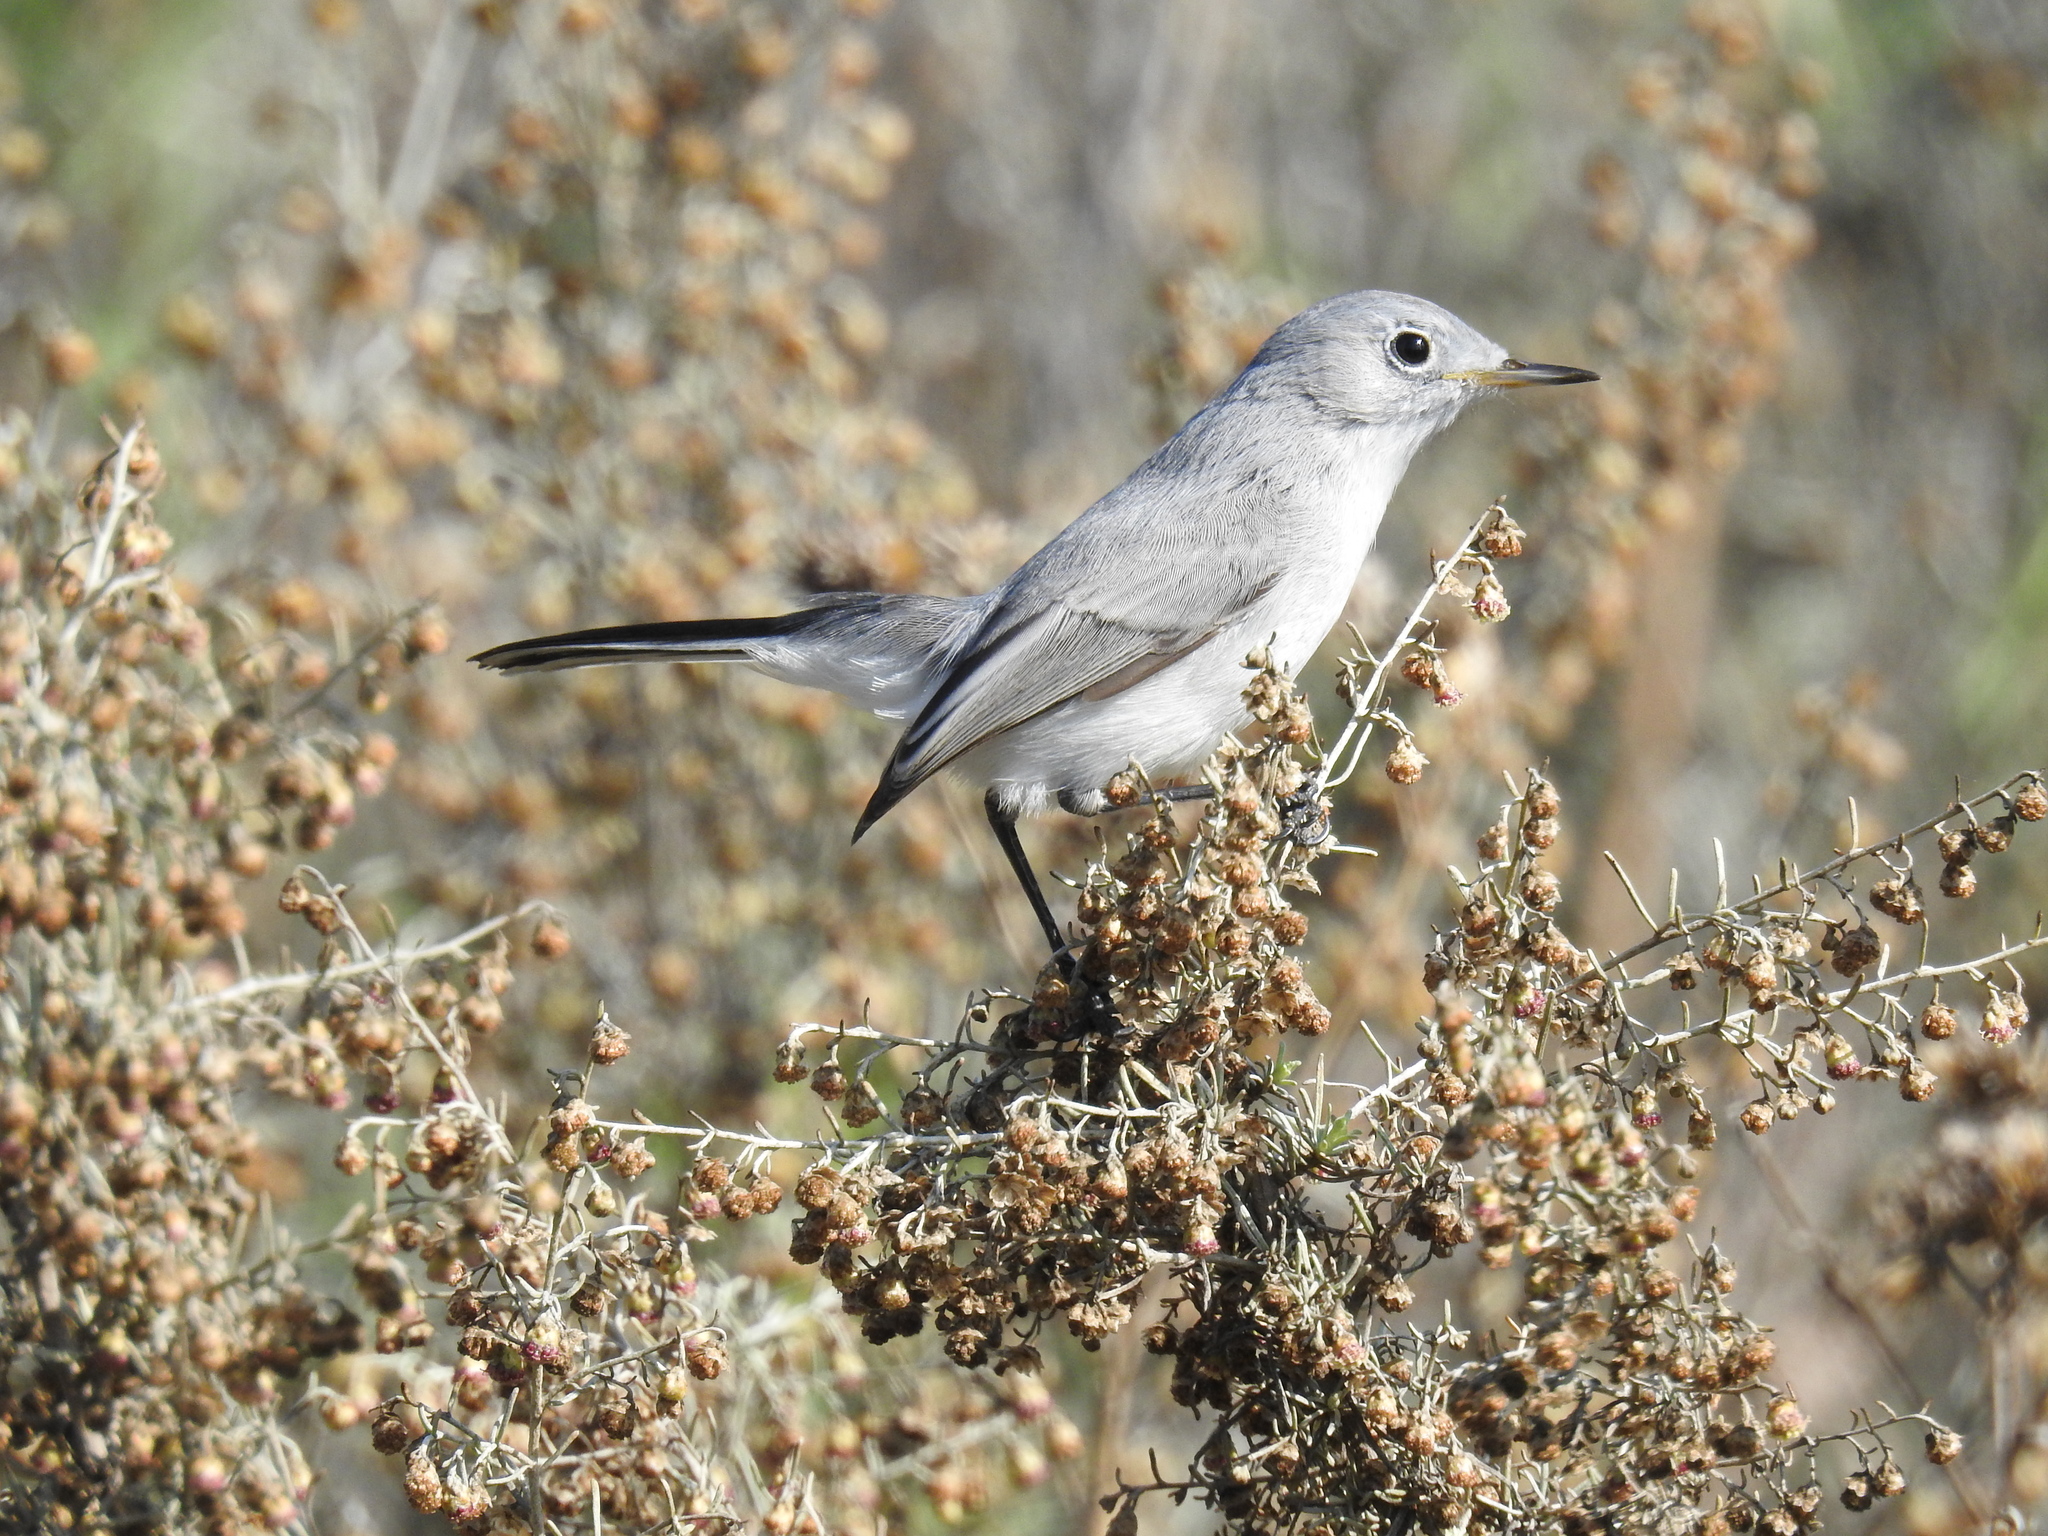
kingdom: Animalia
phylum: Chordata
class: Aves
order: Passeriformes
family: Polioptilidae
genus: Polioptila
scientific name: Polioptila caerulea
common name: Blue-gray gnatcatcher
